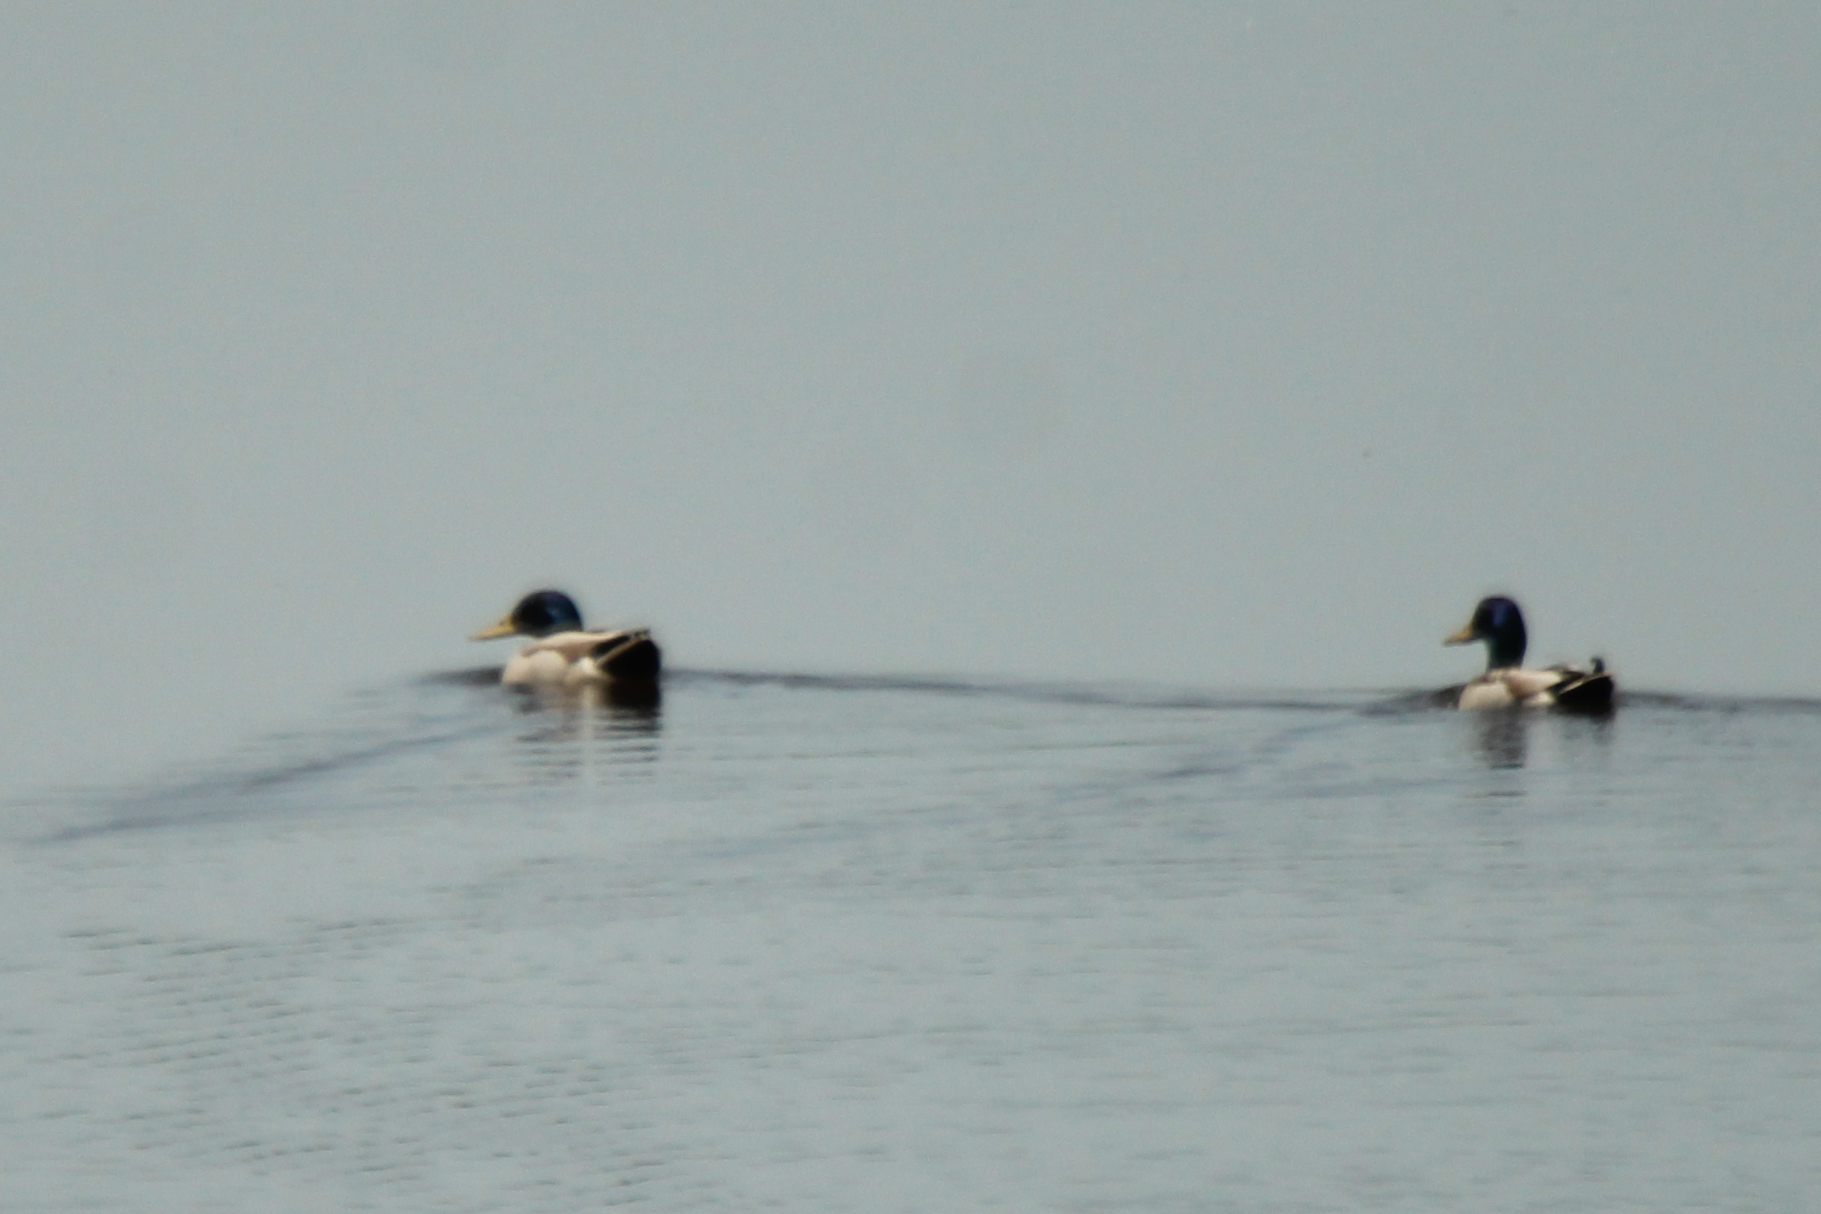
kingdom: Animalia
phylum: Chordata
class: Aves
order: Anseriformes
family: Anatidae
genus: Anas
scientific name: Anas platyrhynchos
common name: Mallard
